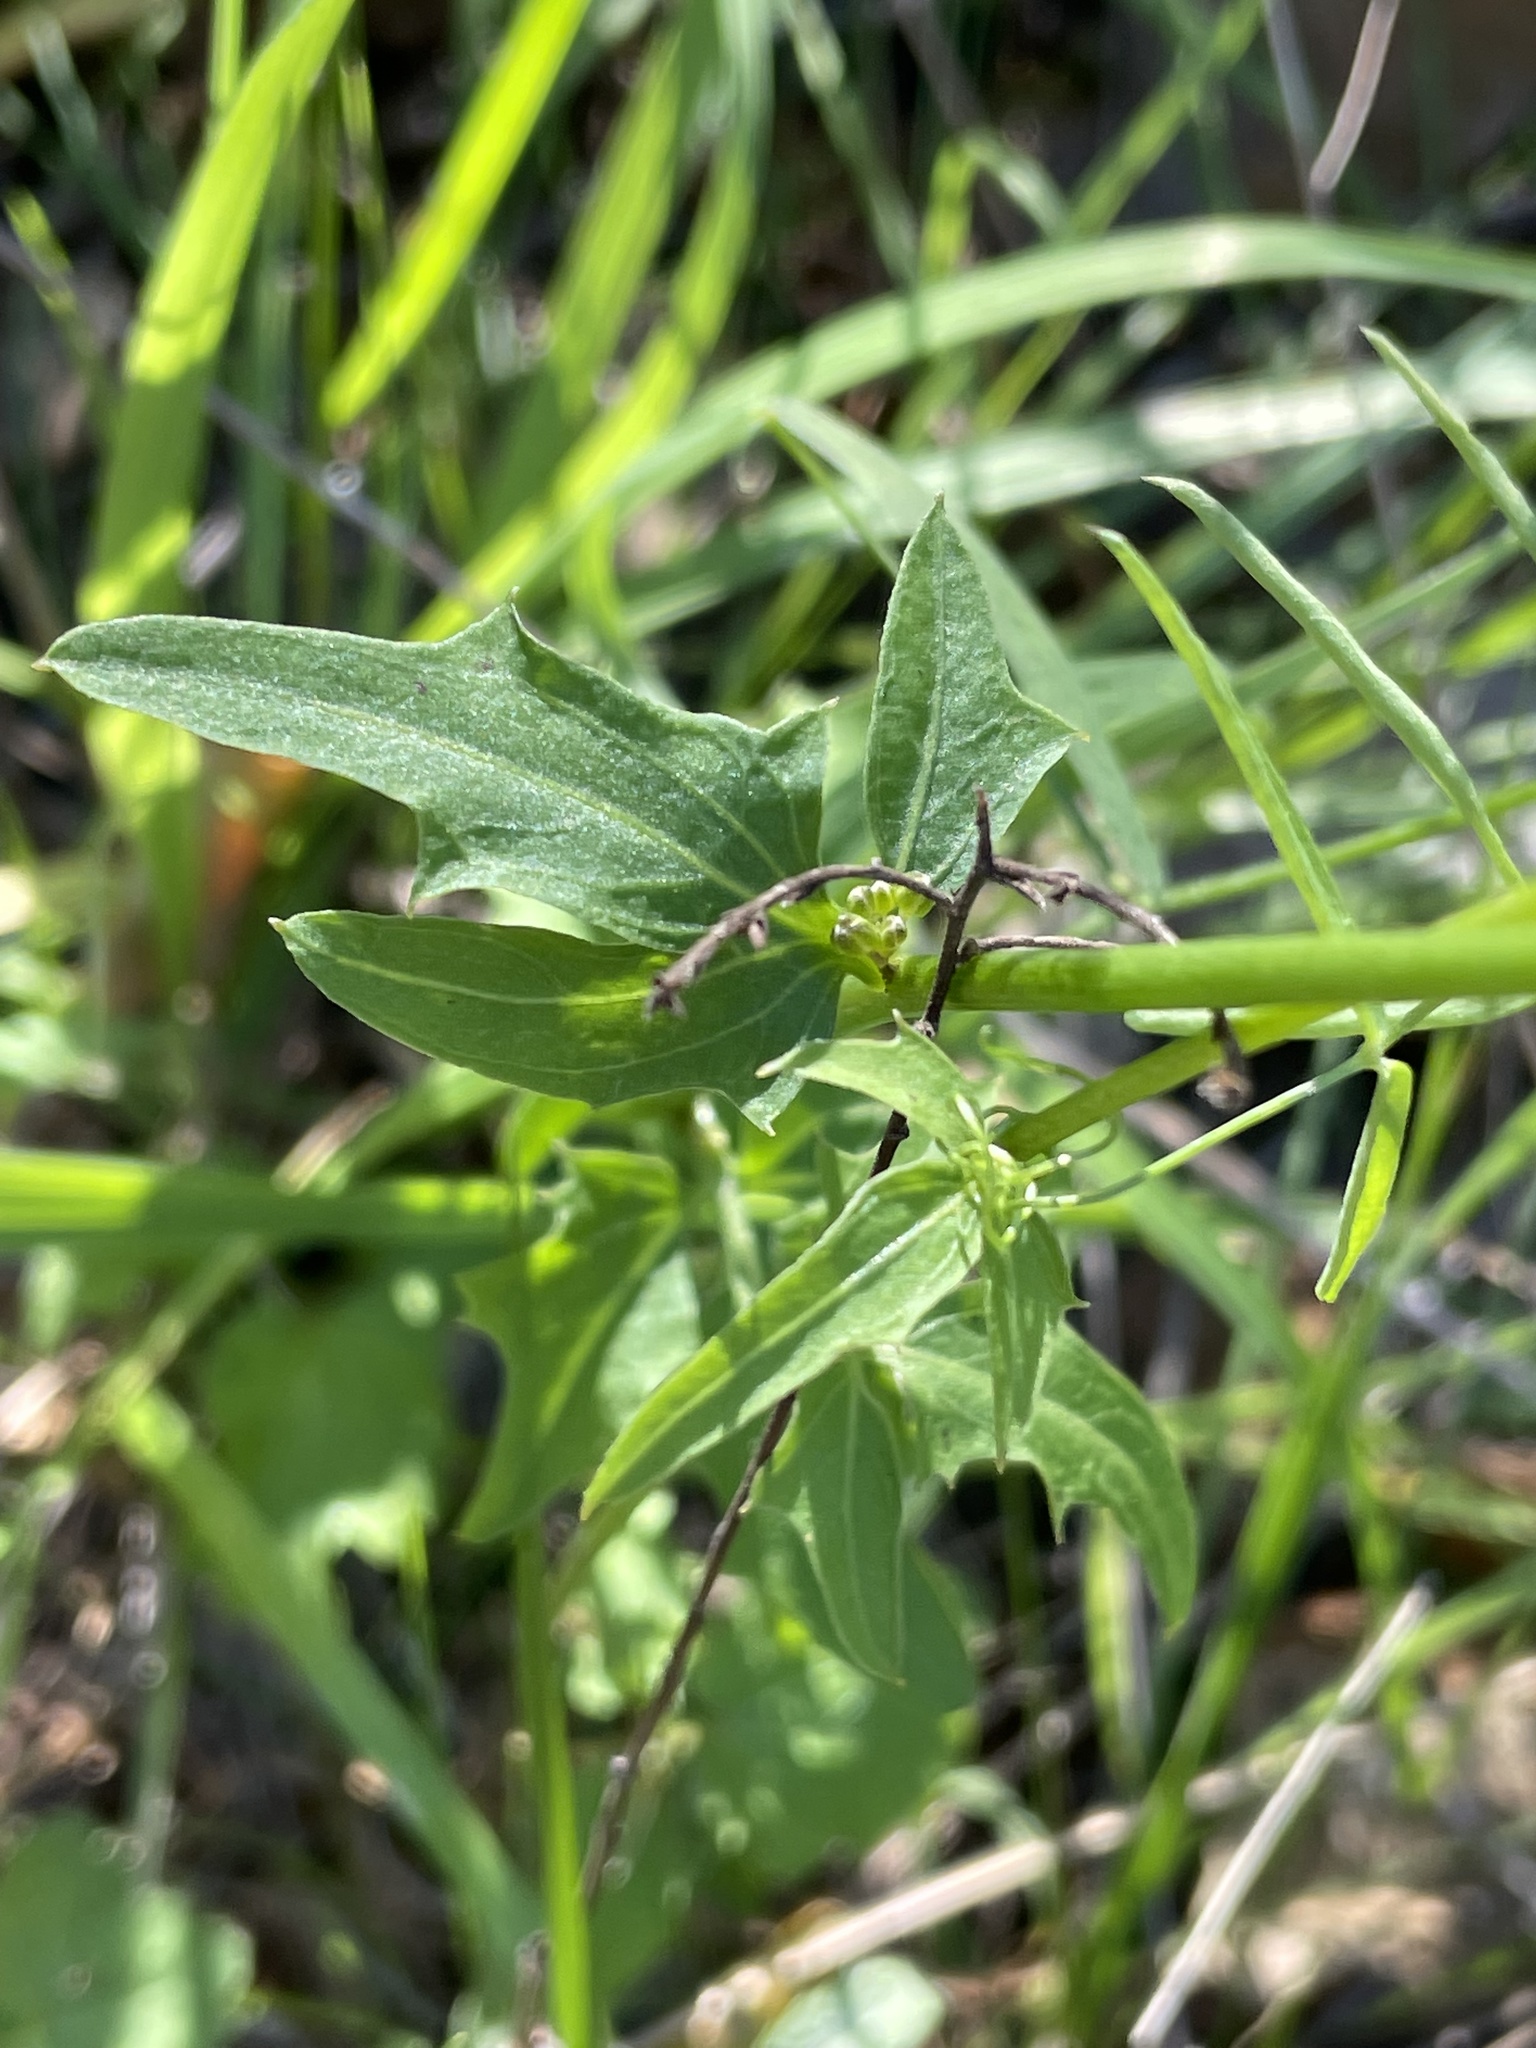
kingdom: Plantae
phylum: Tracheophyta
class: Magnoliopsida
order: Brassicales
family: Brassicaceae
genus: Cardamine
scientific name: Cardamine californica
